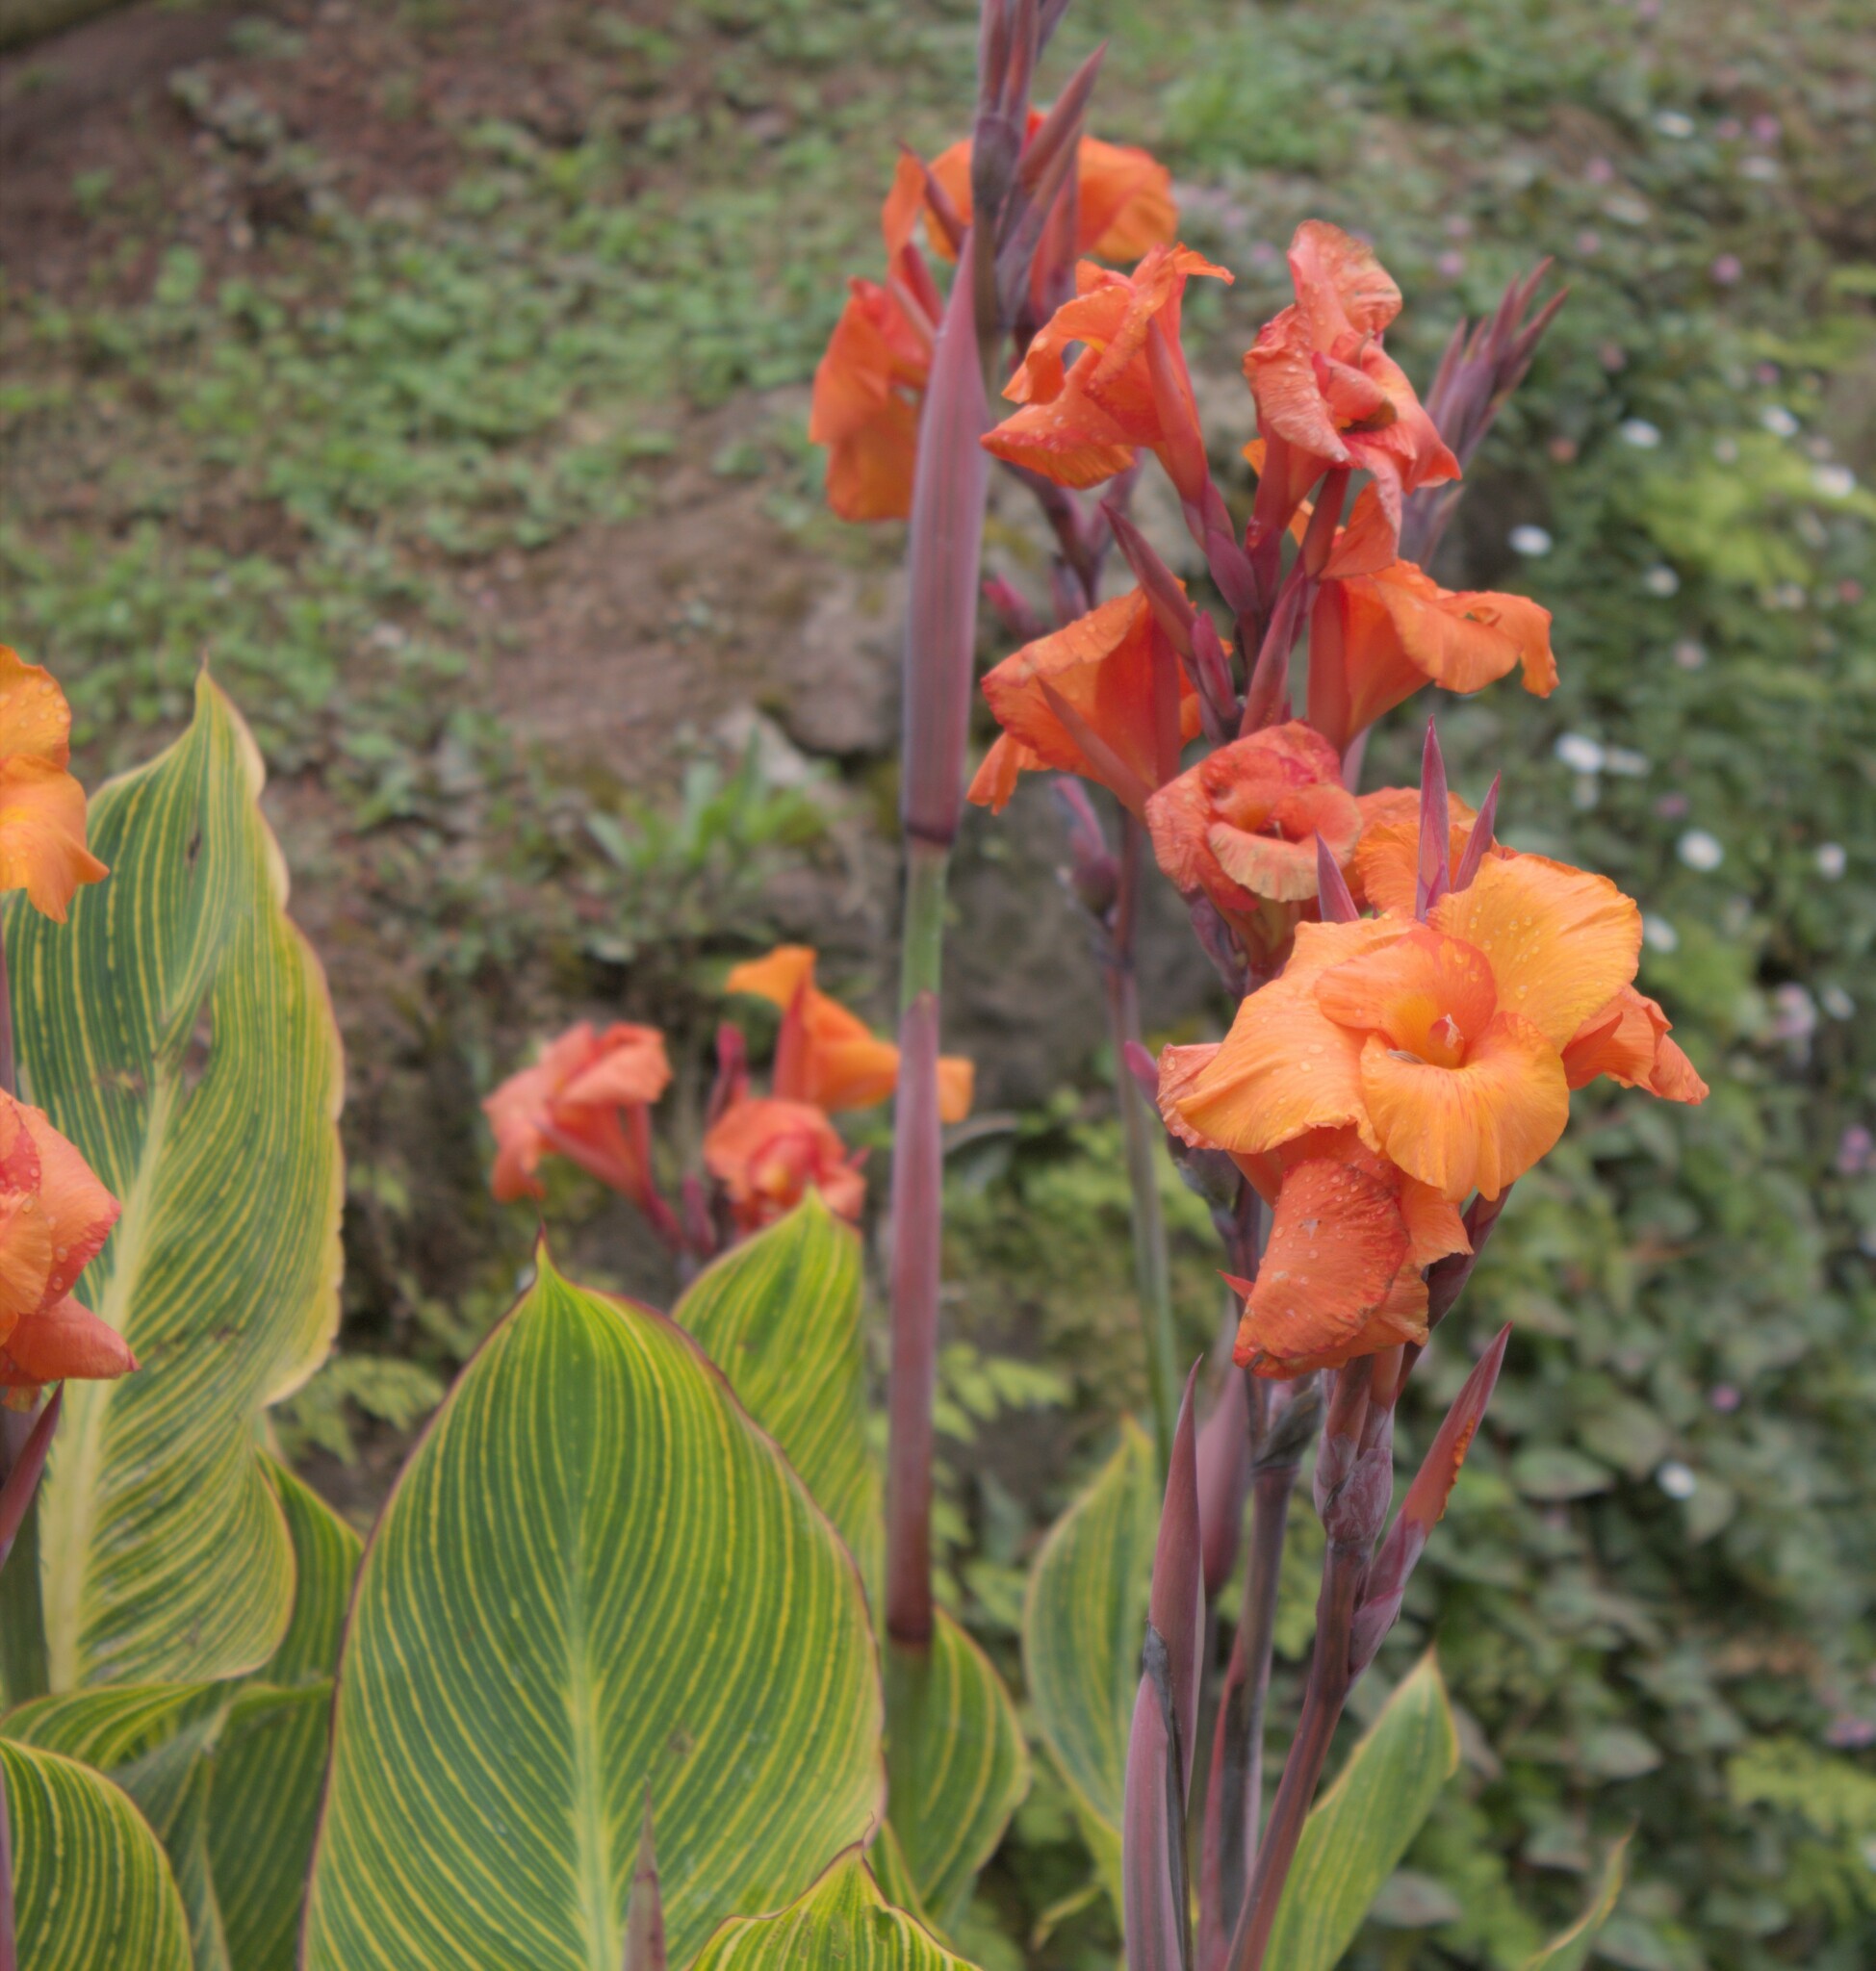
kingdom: Plantae
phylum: Tracheophyta
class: Liliopsida
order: Zingiberales
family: Cannaceae
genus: Canna
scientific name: Canna hybrida
